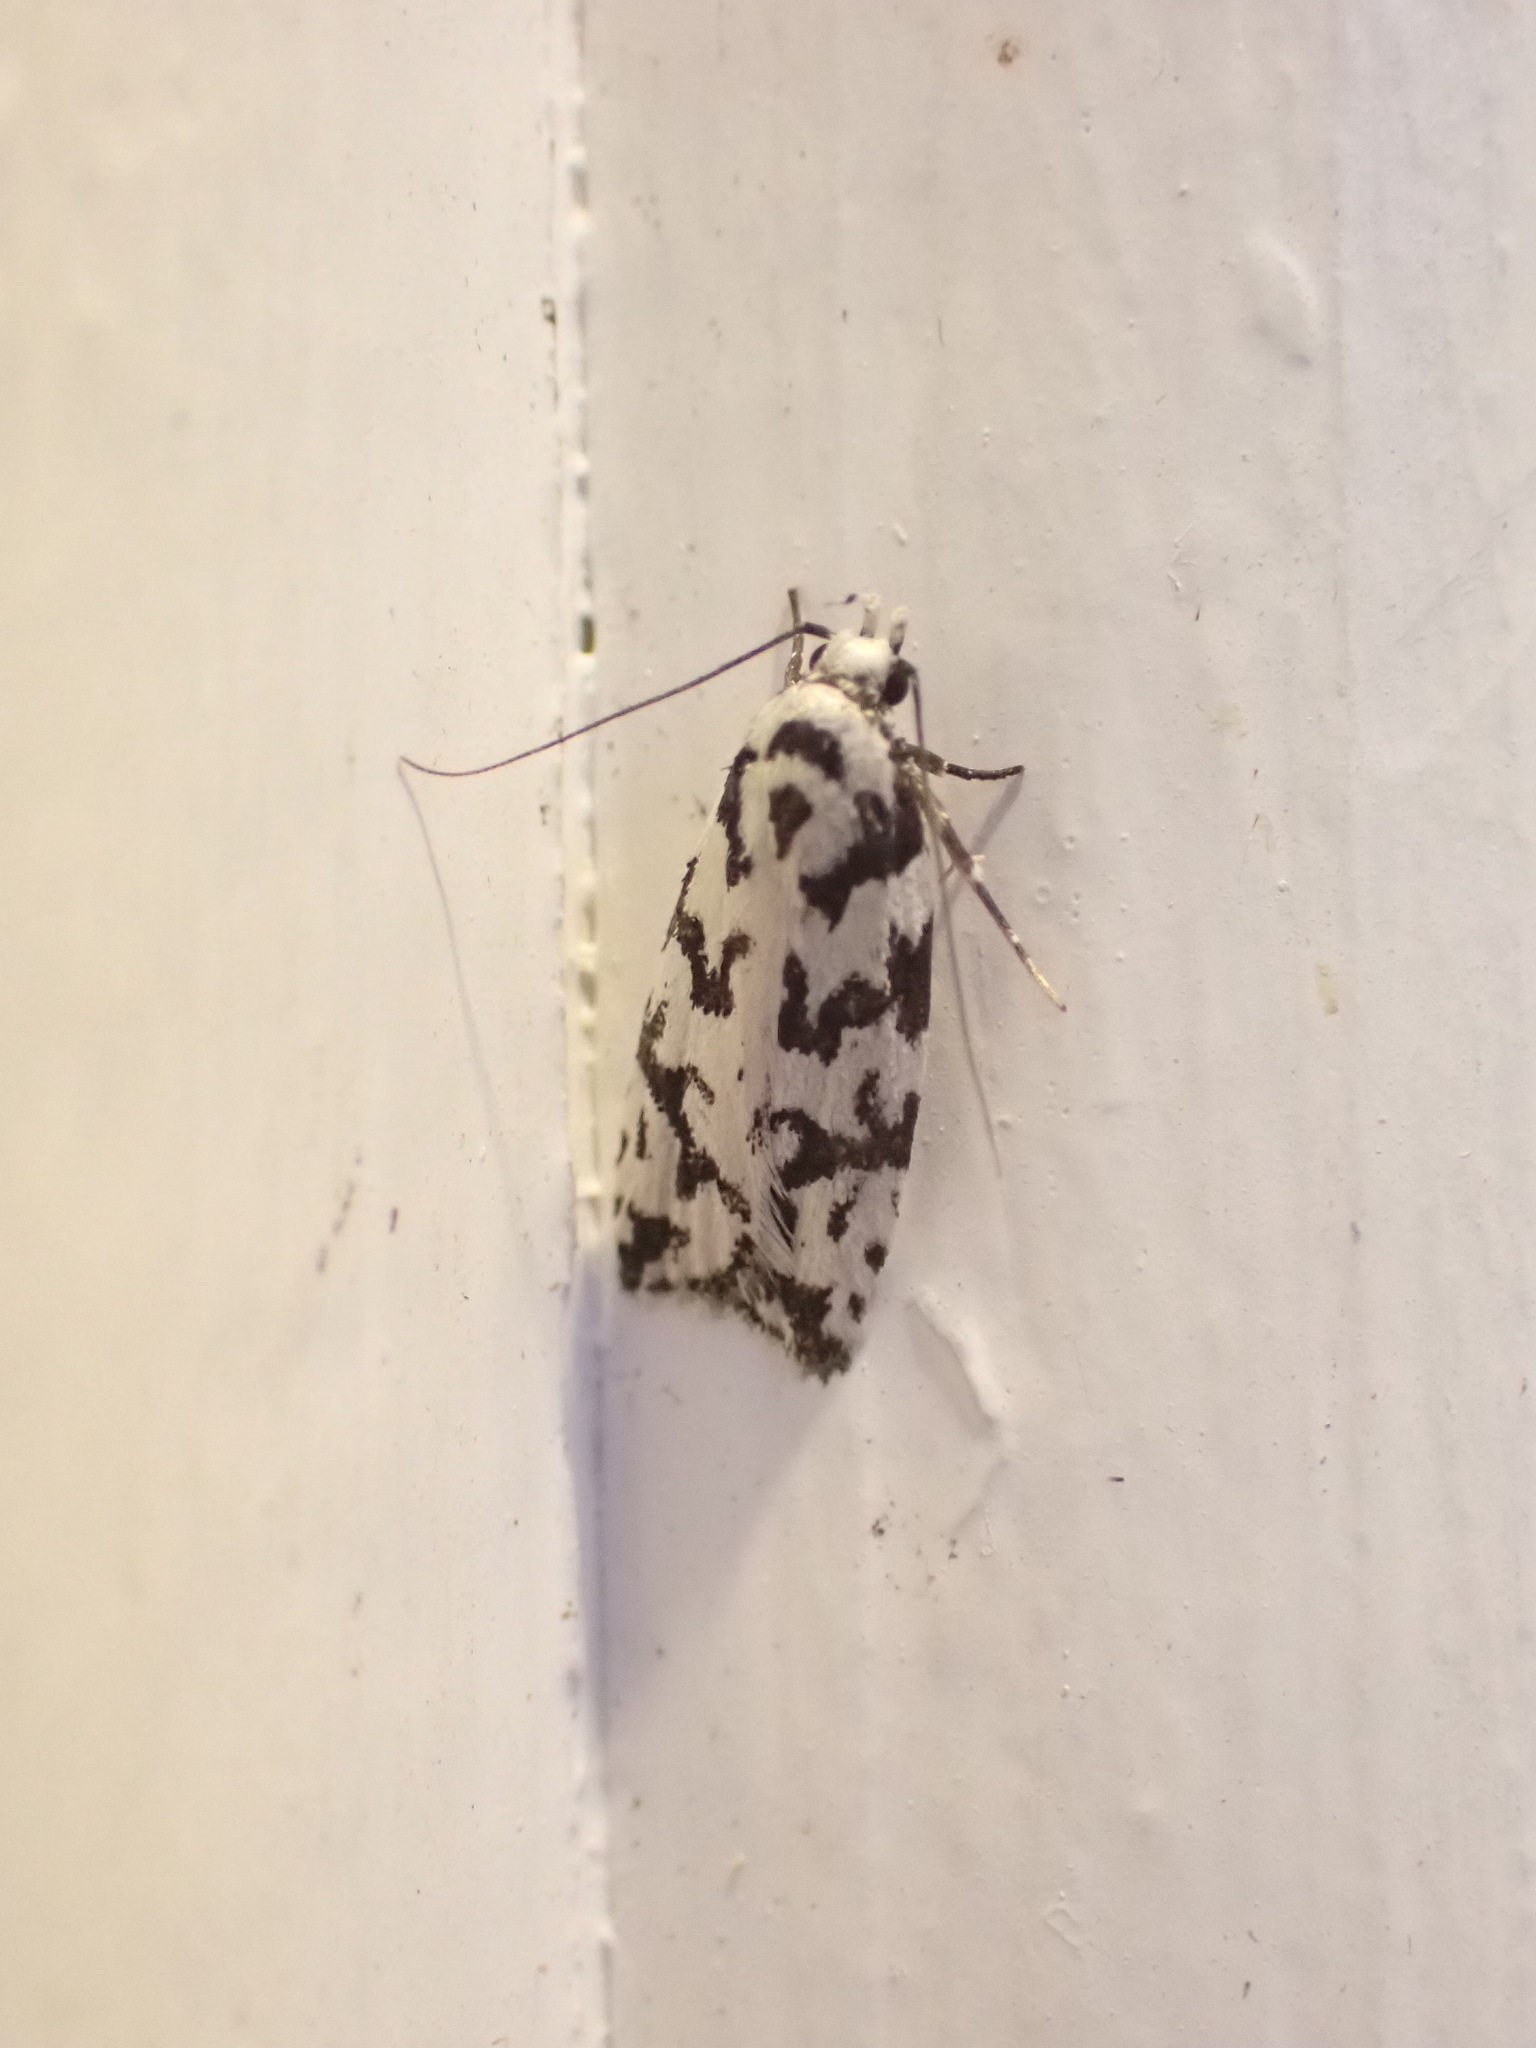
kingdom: Animalia
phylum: Arthropoda
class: Insecta
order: Lepidoptera
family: Oecophoridae
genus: Izatha
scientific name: Izatha
